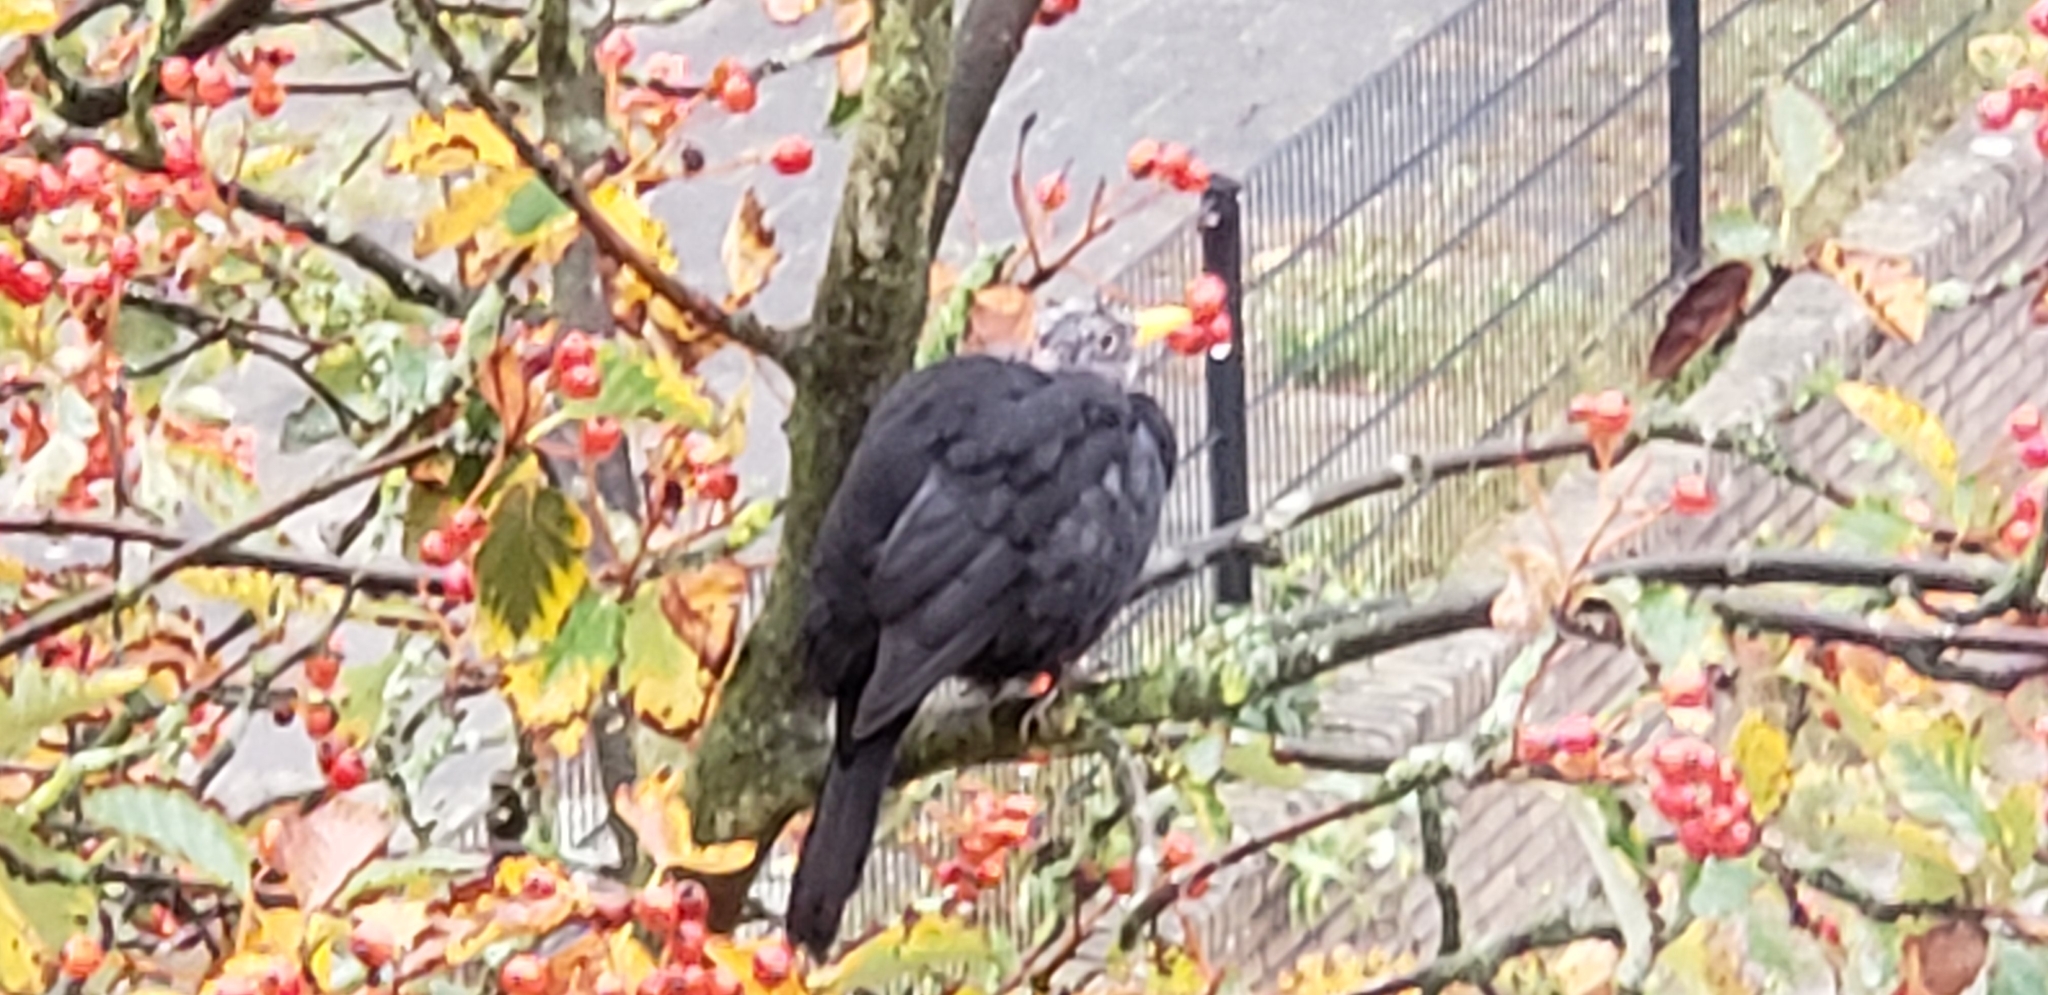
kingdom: Animalia
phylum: Chordata
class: Aves
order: Passeriformes
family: Turdidae
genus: Turdus
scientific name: Turdus merula
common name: Common blackbird
